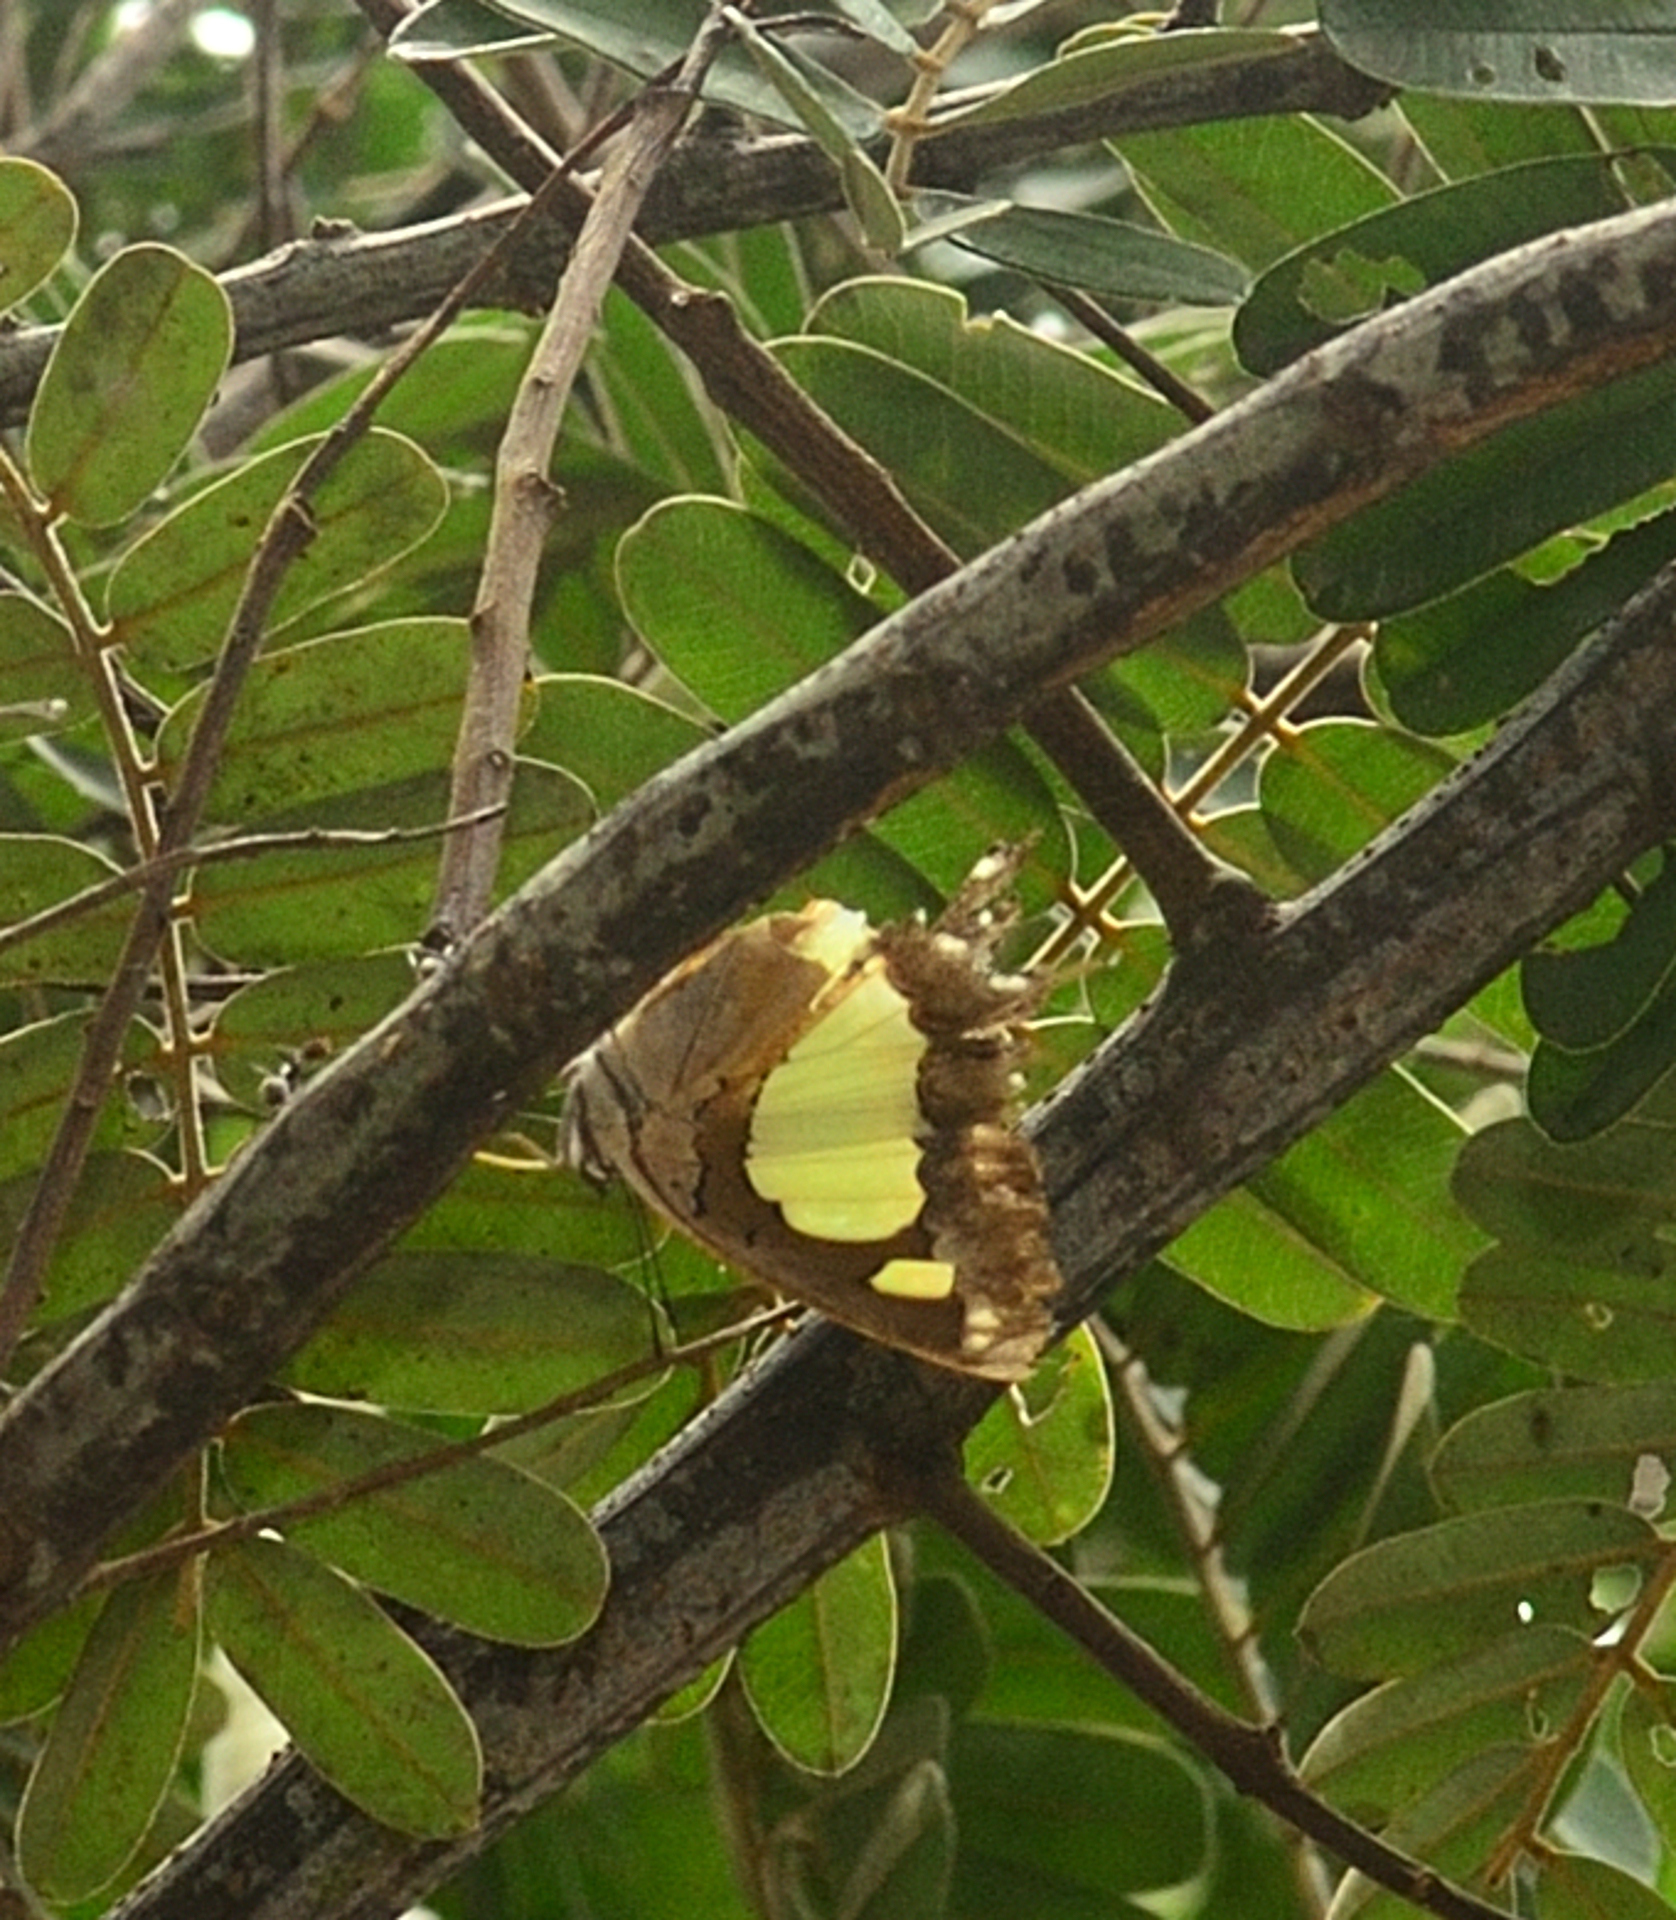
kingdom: Animalia
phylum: Arthropoda
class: Insecta
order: Lepidoptera
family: Nymphalidae
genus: Polyura
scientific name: Polyura agrarius
